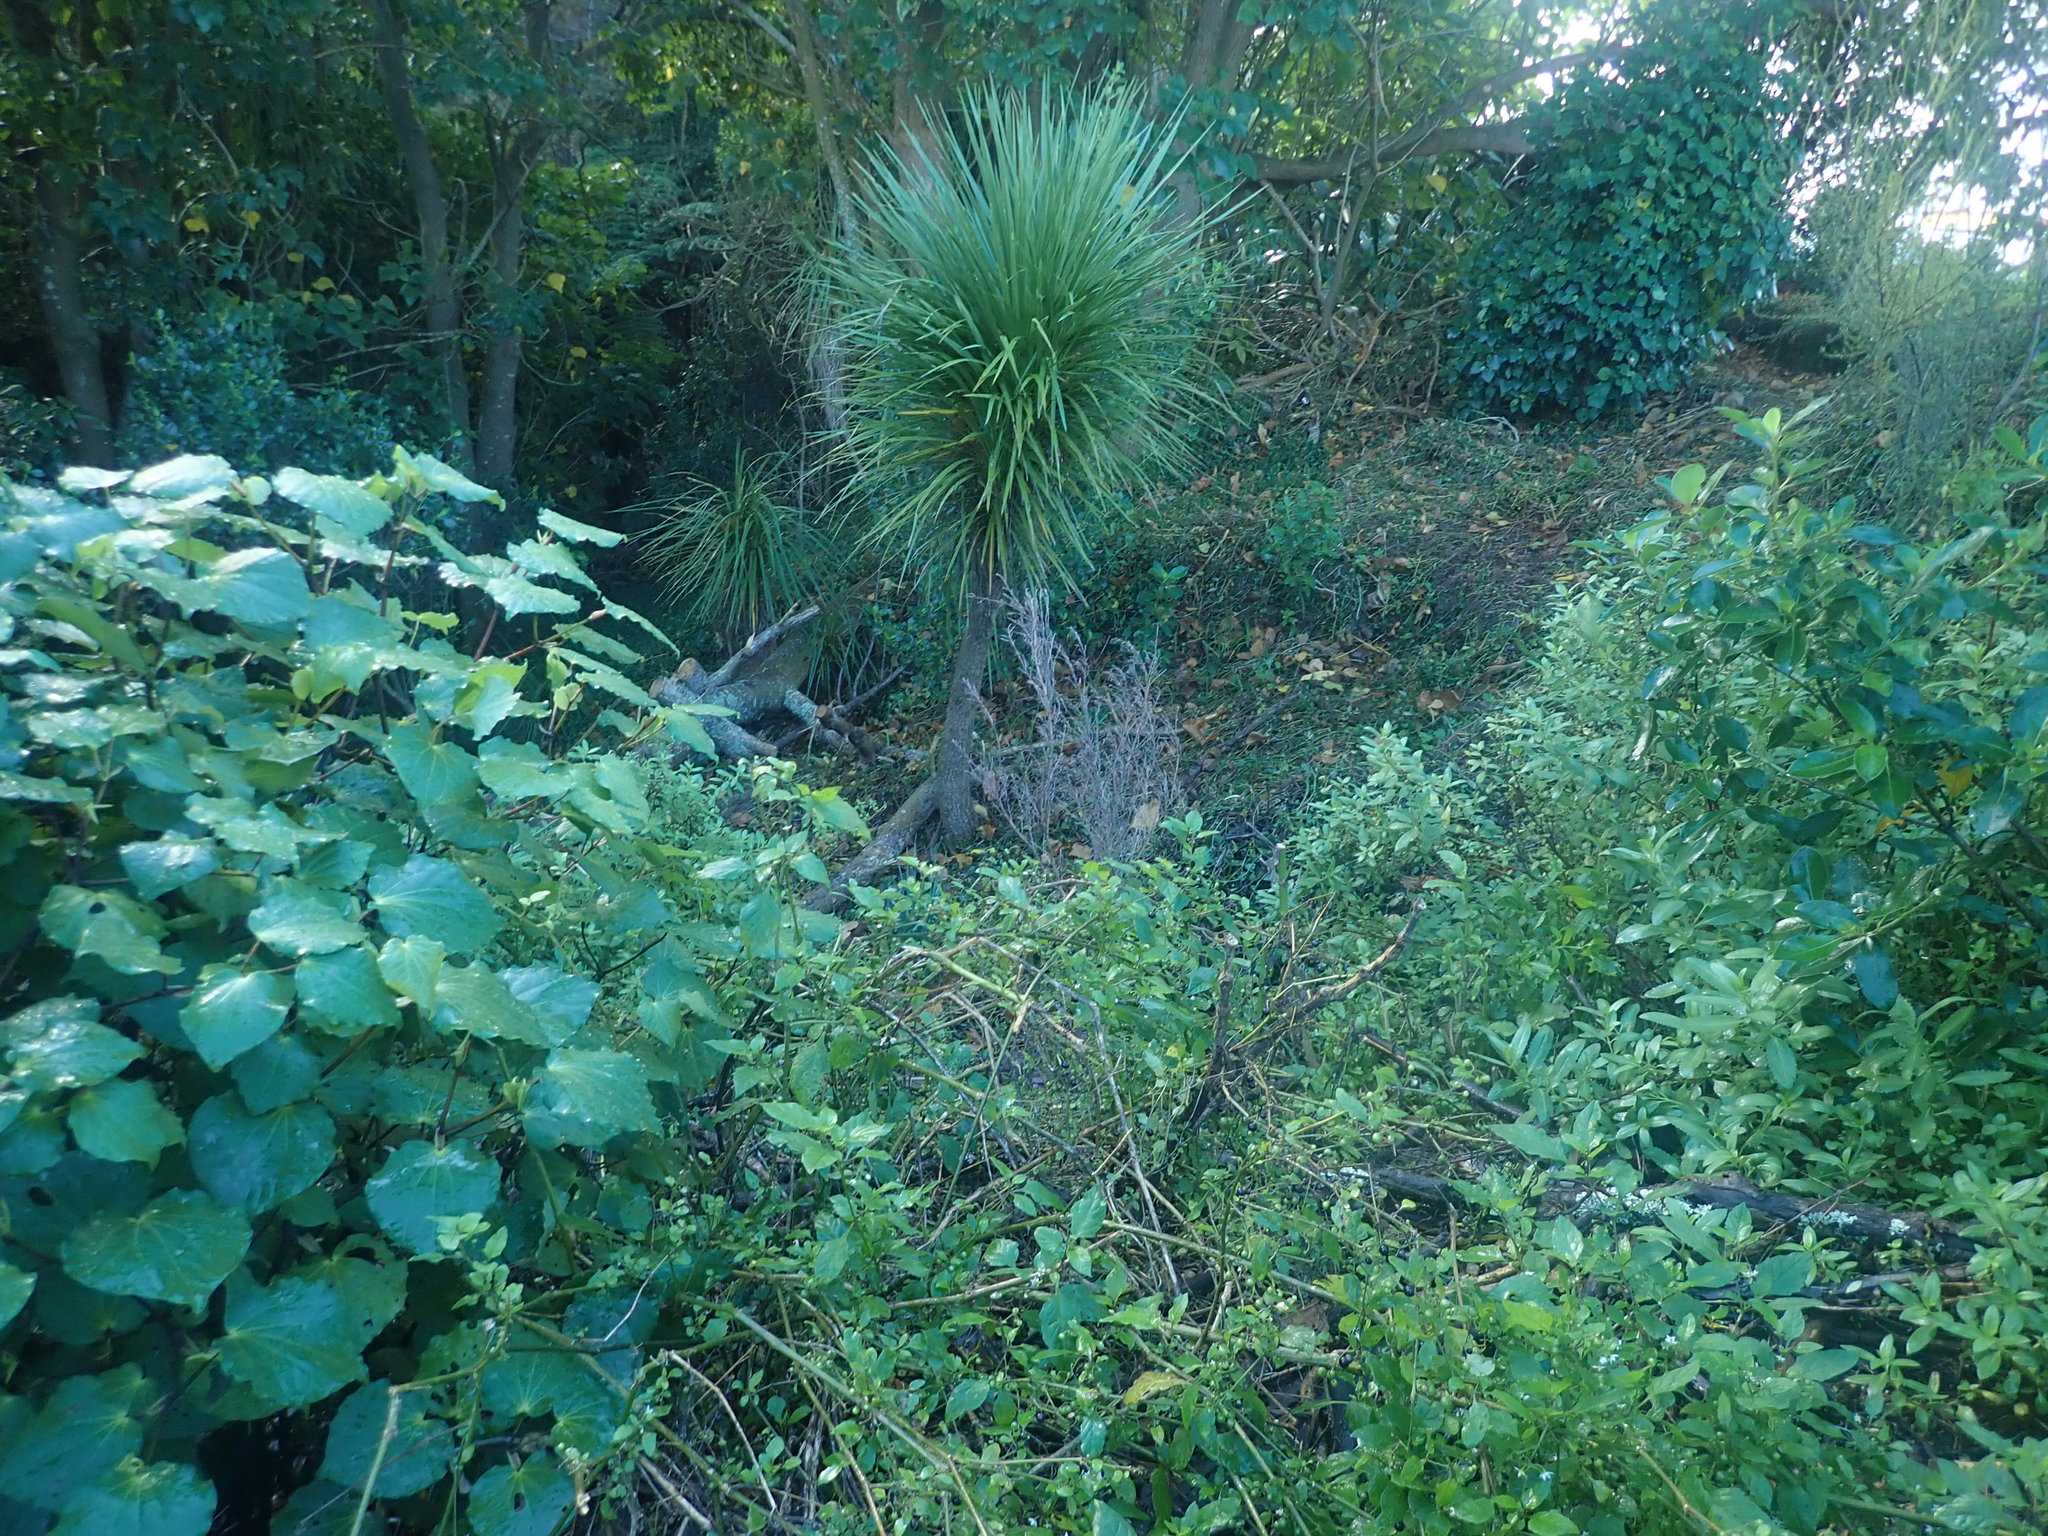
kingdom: Plantae
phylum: Tracheophyta
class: Magnoliopsida
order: Solanales
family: Solanaceae
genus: Solanum
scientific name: Solanum americanum
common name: American black nightshade
